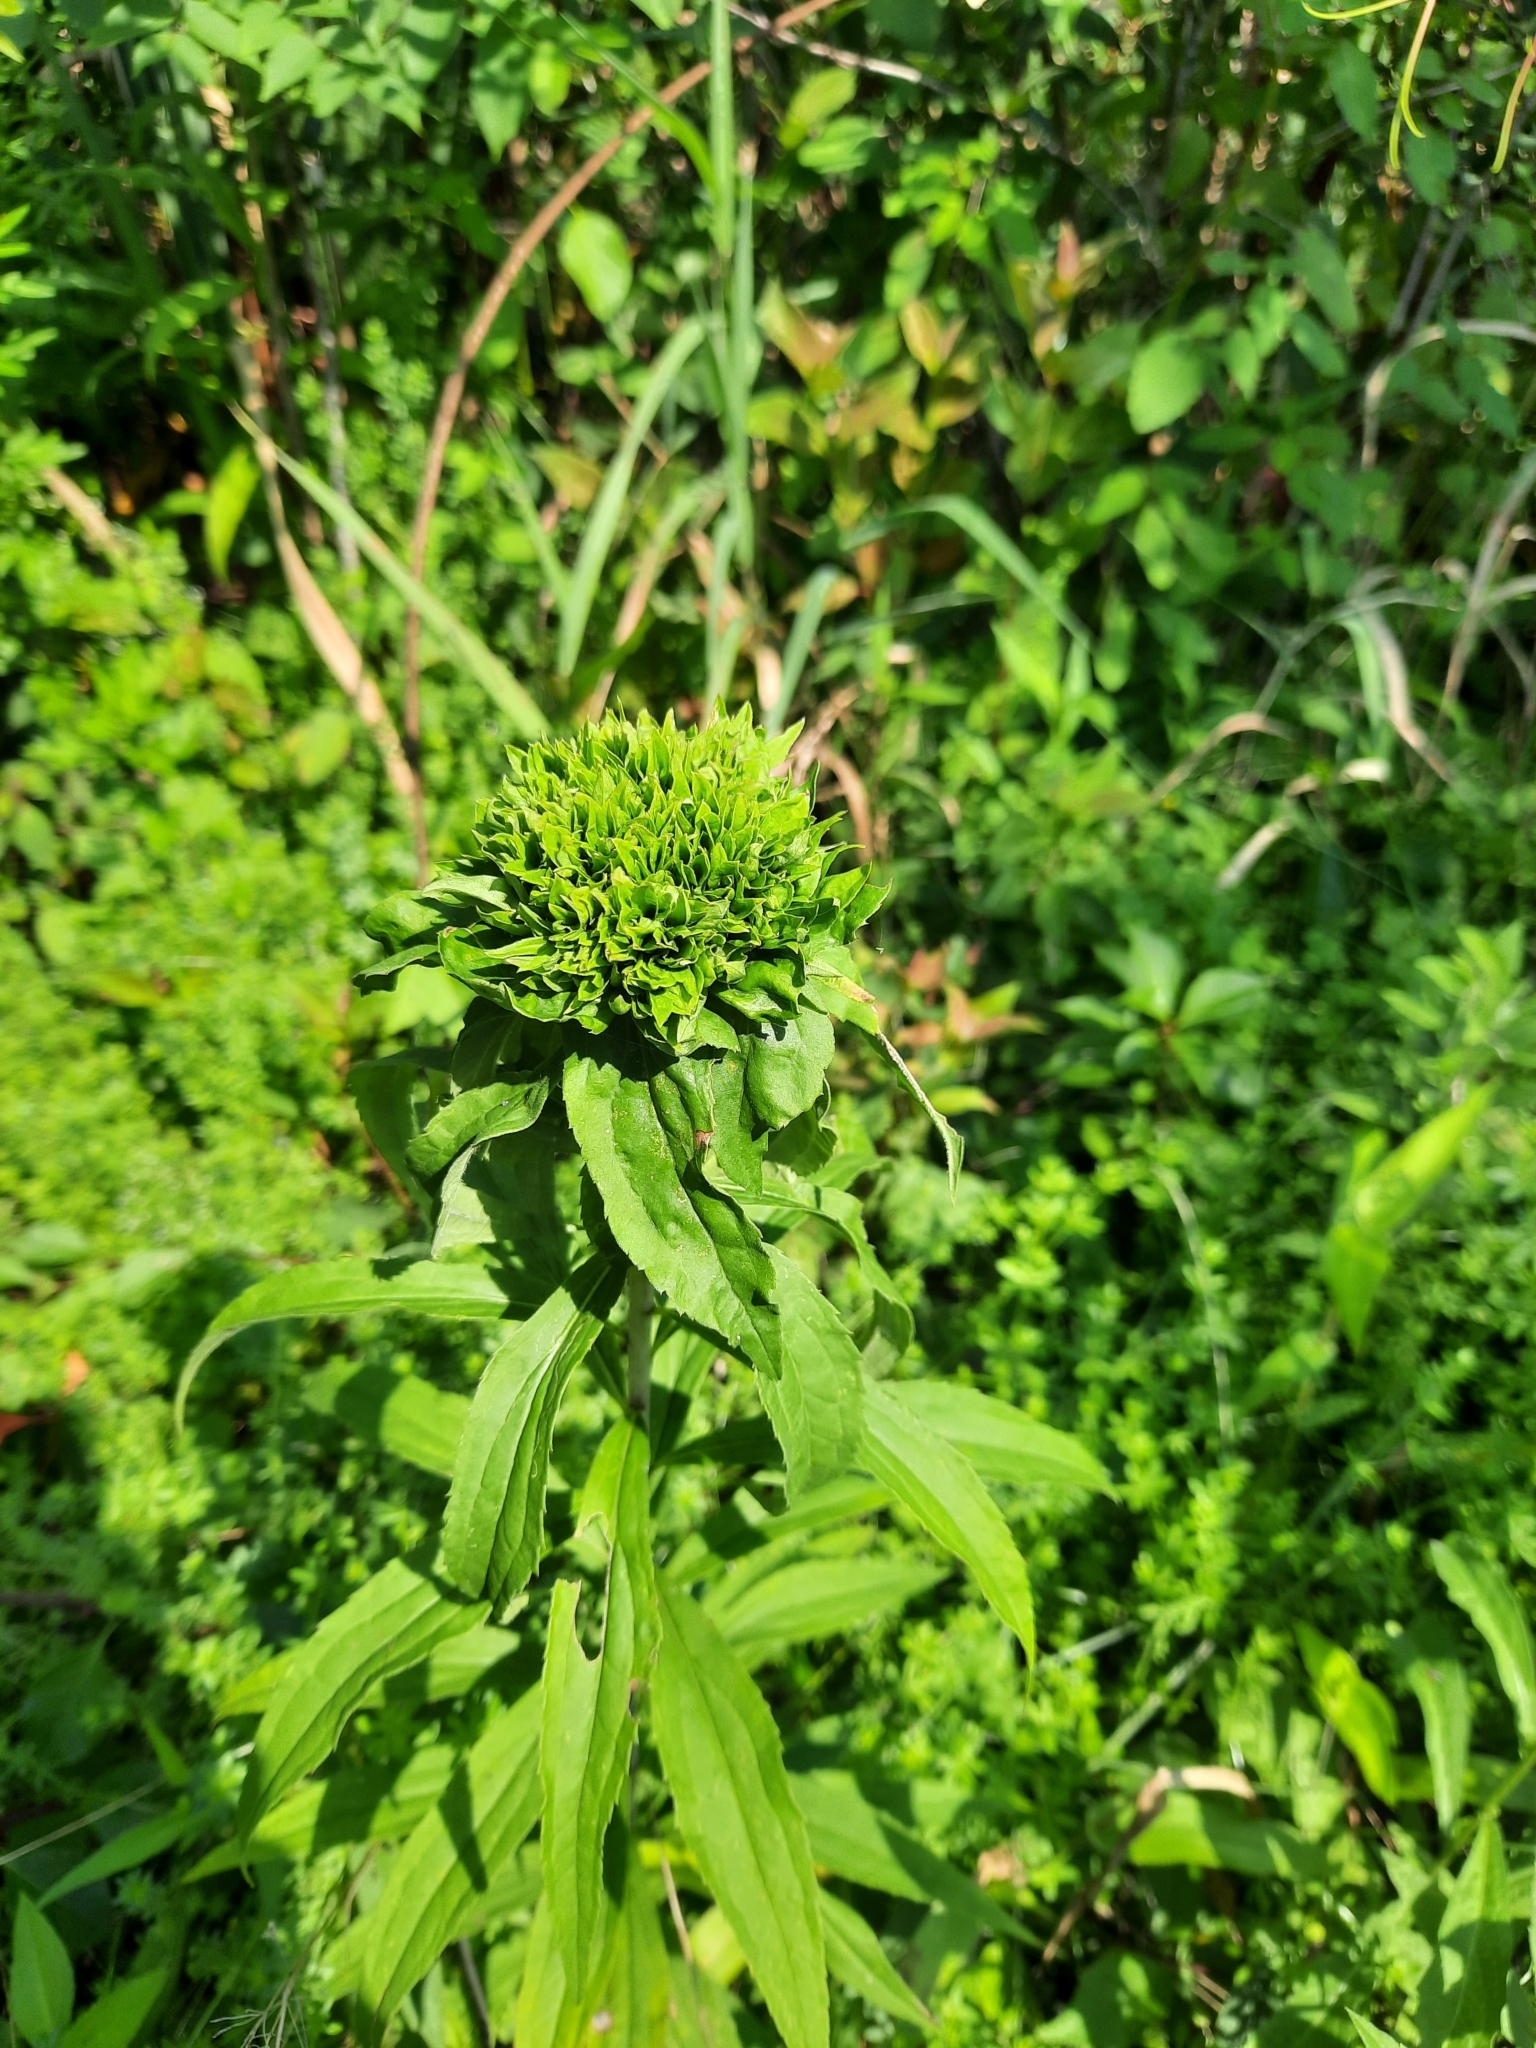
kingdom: Animalia
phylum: Arthropoda
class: Insecta
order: Diptera
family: Cecidomyiidae
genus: Rhopalomyia
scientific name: Rhopalomyia capitata
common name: Giant goldenrod bunch gall midge
